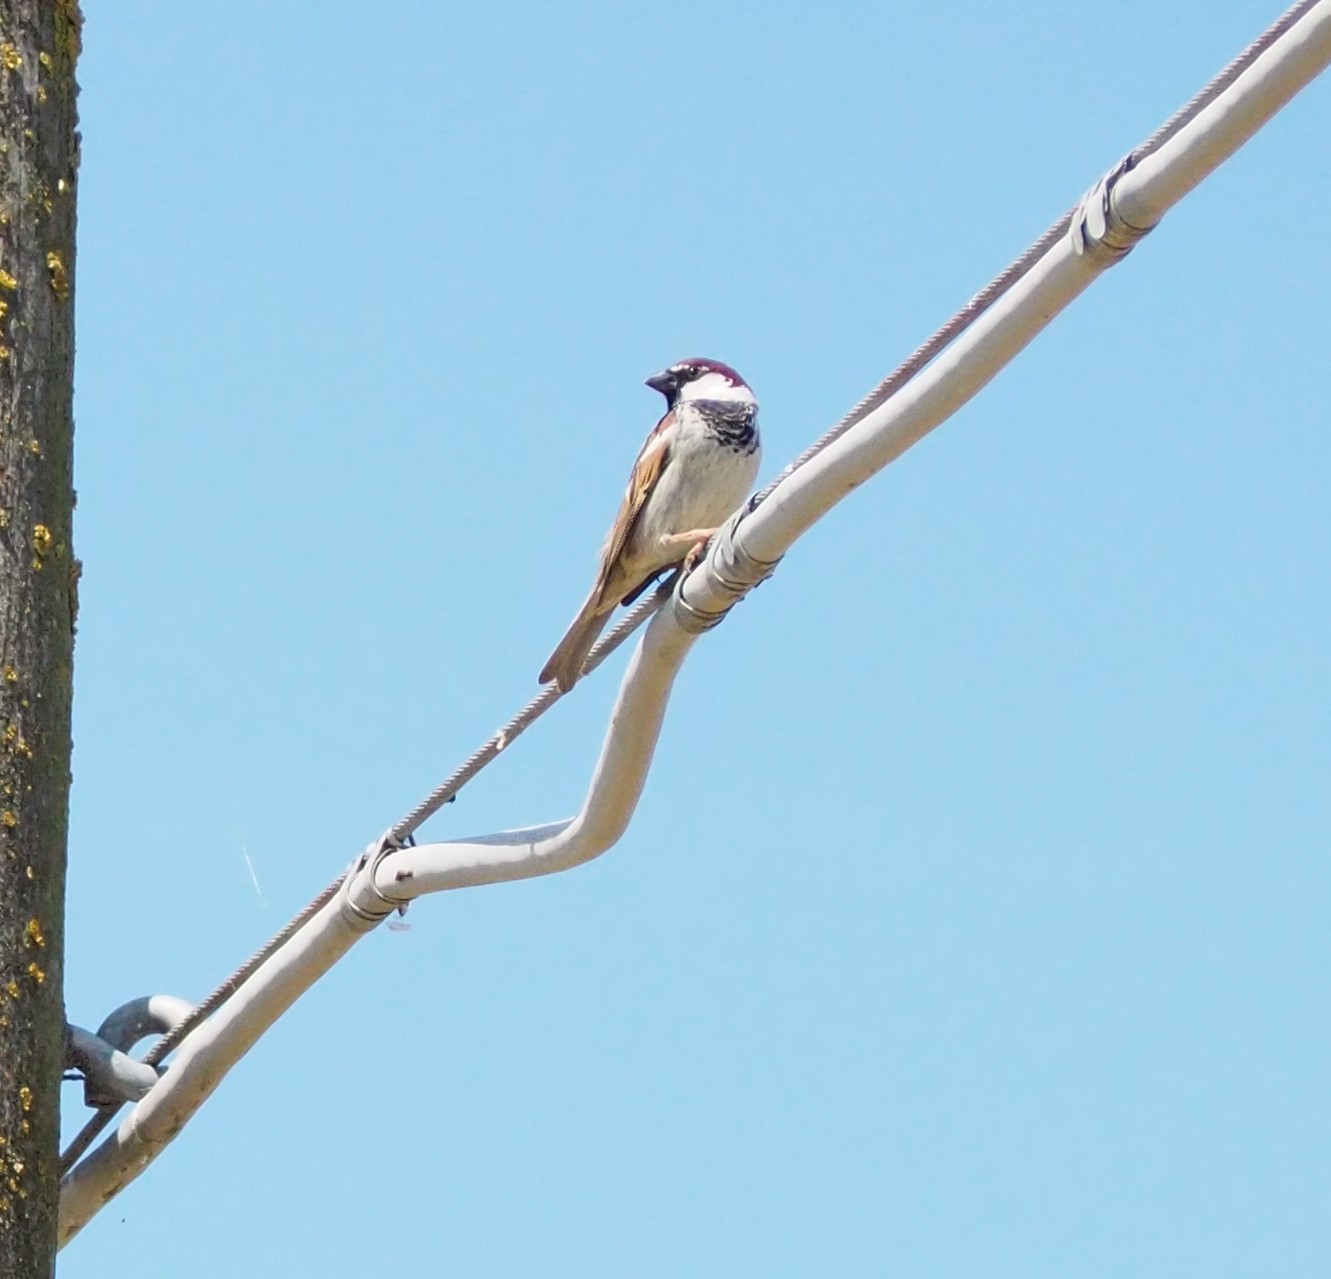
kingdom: Animalia
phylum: Chordata
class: Aves
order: Passeriformes
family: Passeridae
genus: Passer
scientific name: Passer italiae
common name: Italian sparrow
